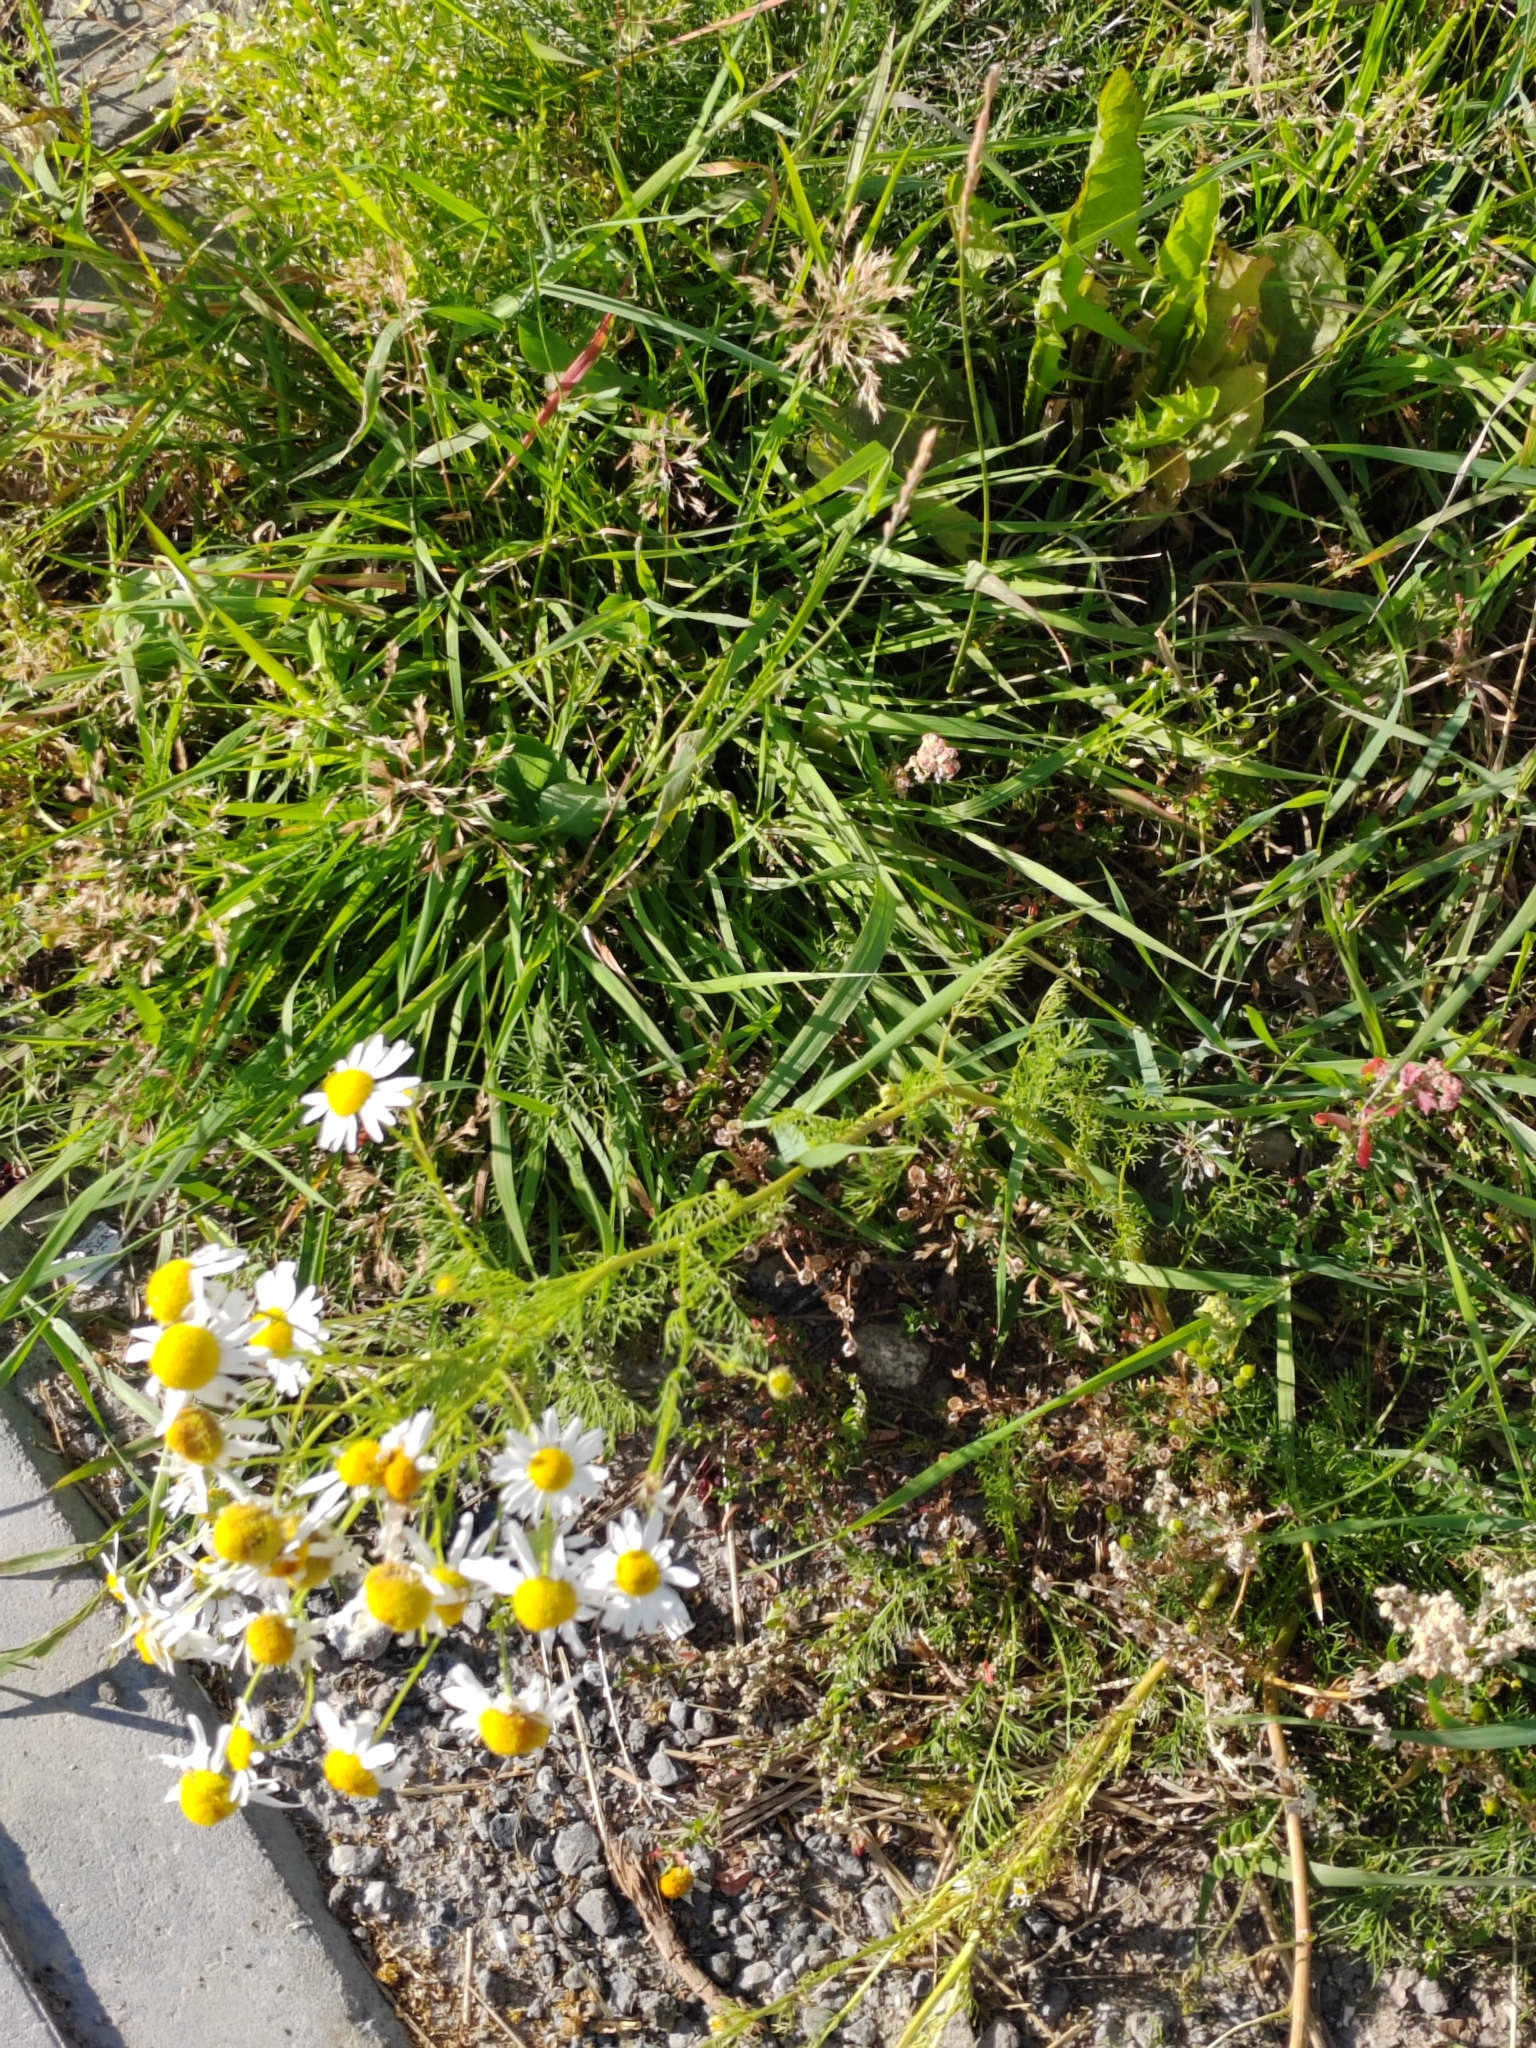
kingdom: Plantae
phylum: Tracheophyta
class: Magnoliopsida
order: Asterales
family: Asteraceae
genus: Tripleurospermum
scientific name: Tripleurospermum inodorum
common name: Scentless mayweed
